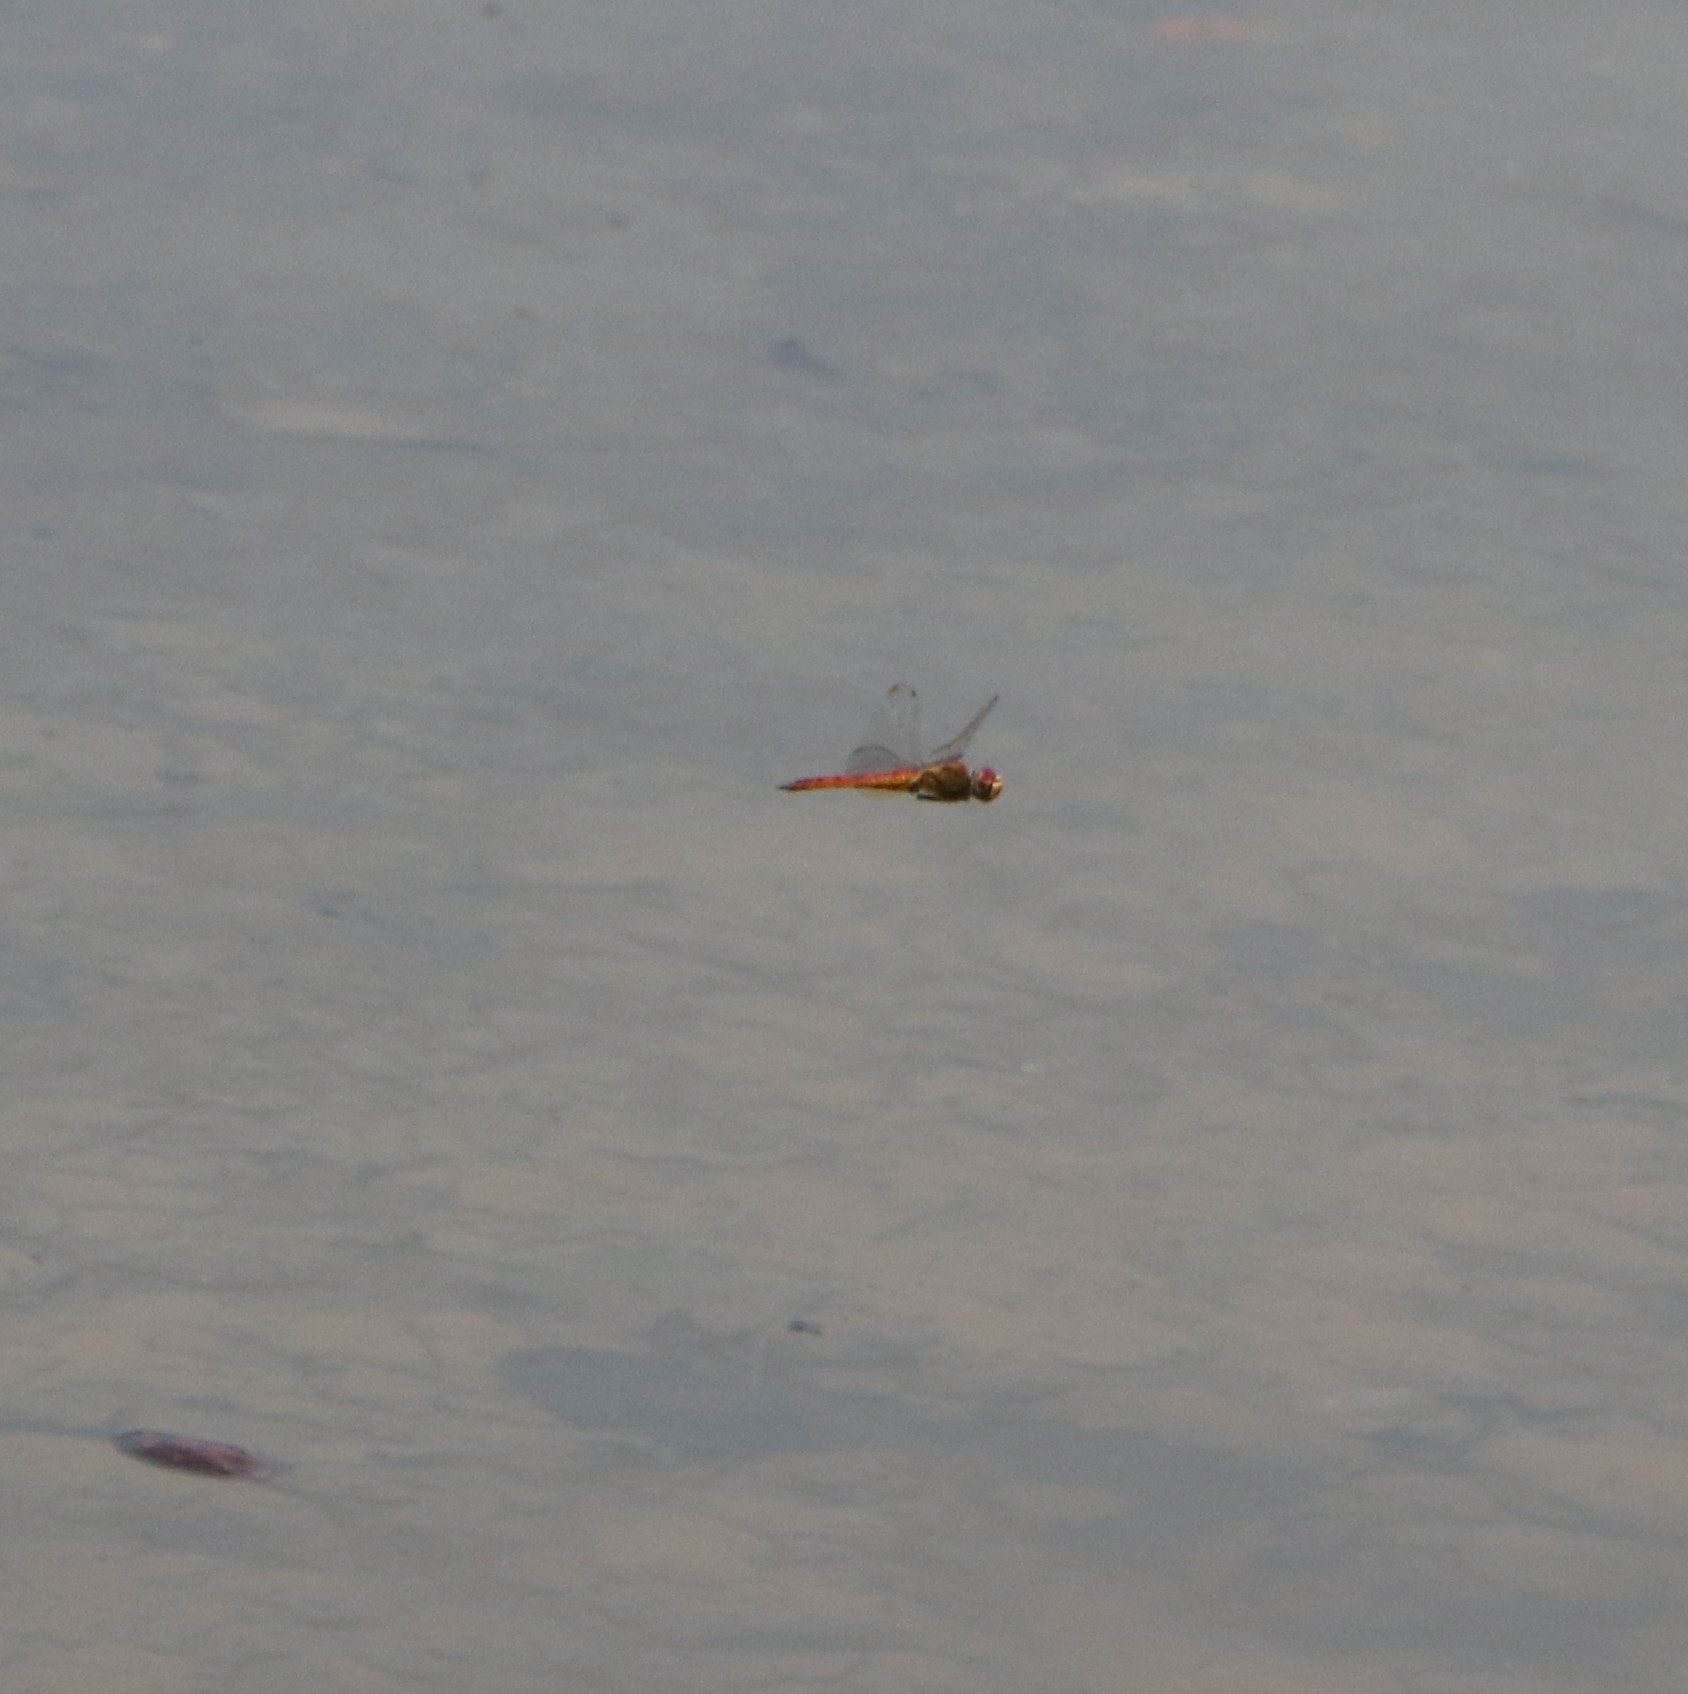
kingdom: Animalia
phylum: Arthropoda
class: Insecta
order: Odonata
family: Libellulidae
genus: Pantala
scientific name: Pantala flavescens
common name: Wandering glider
